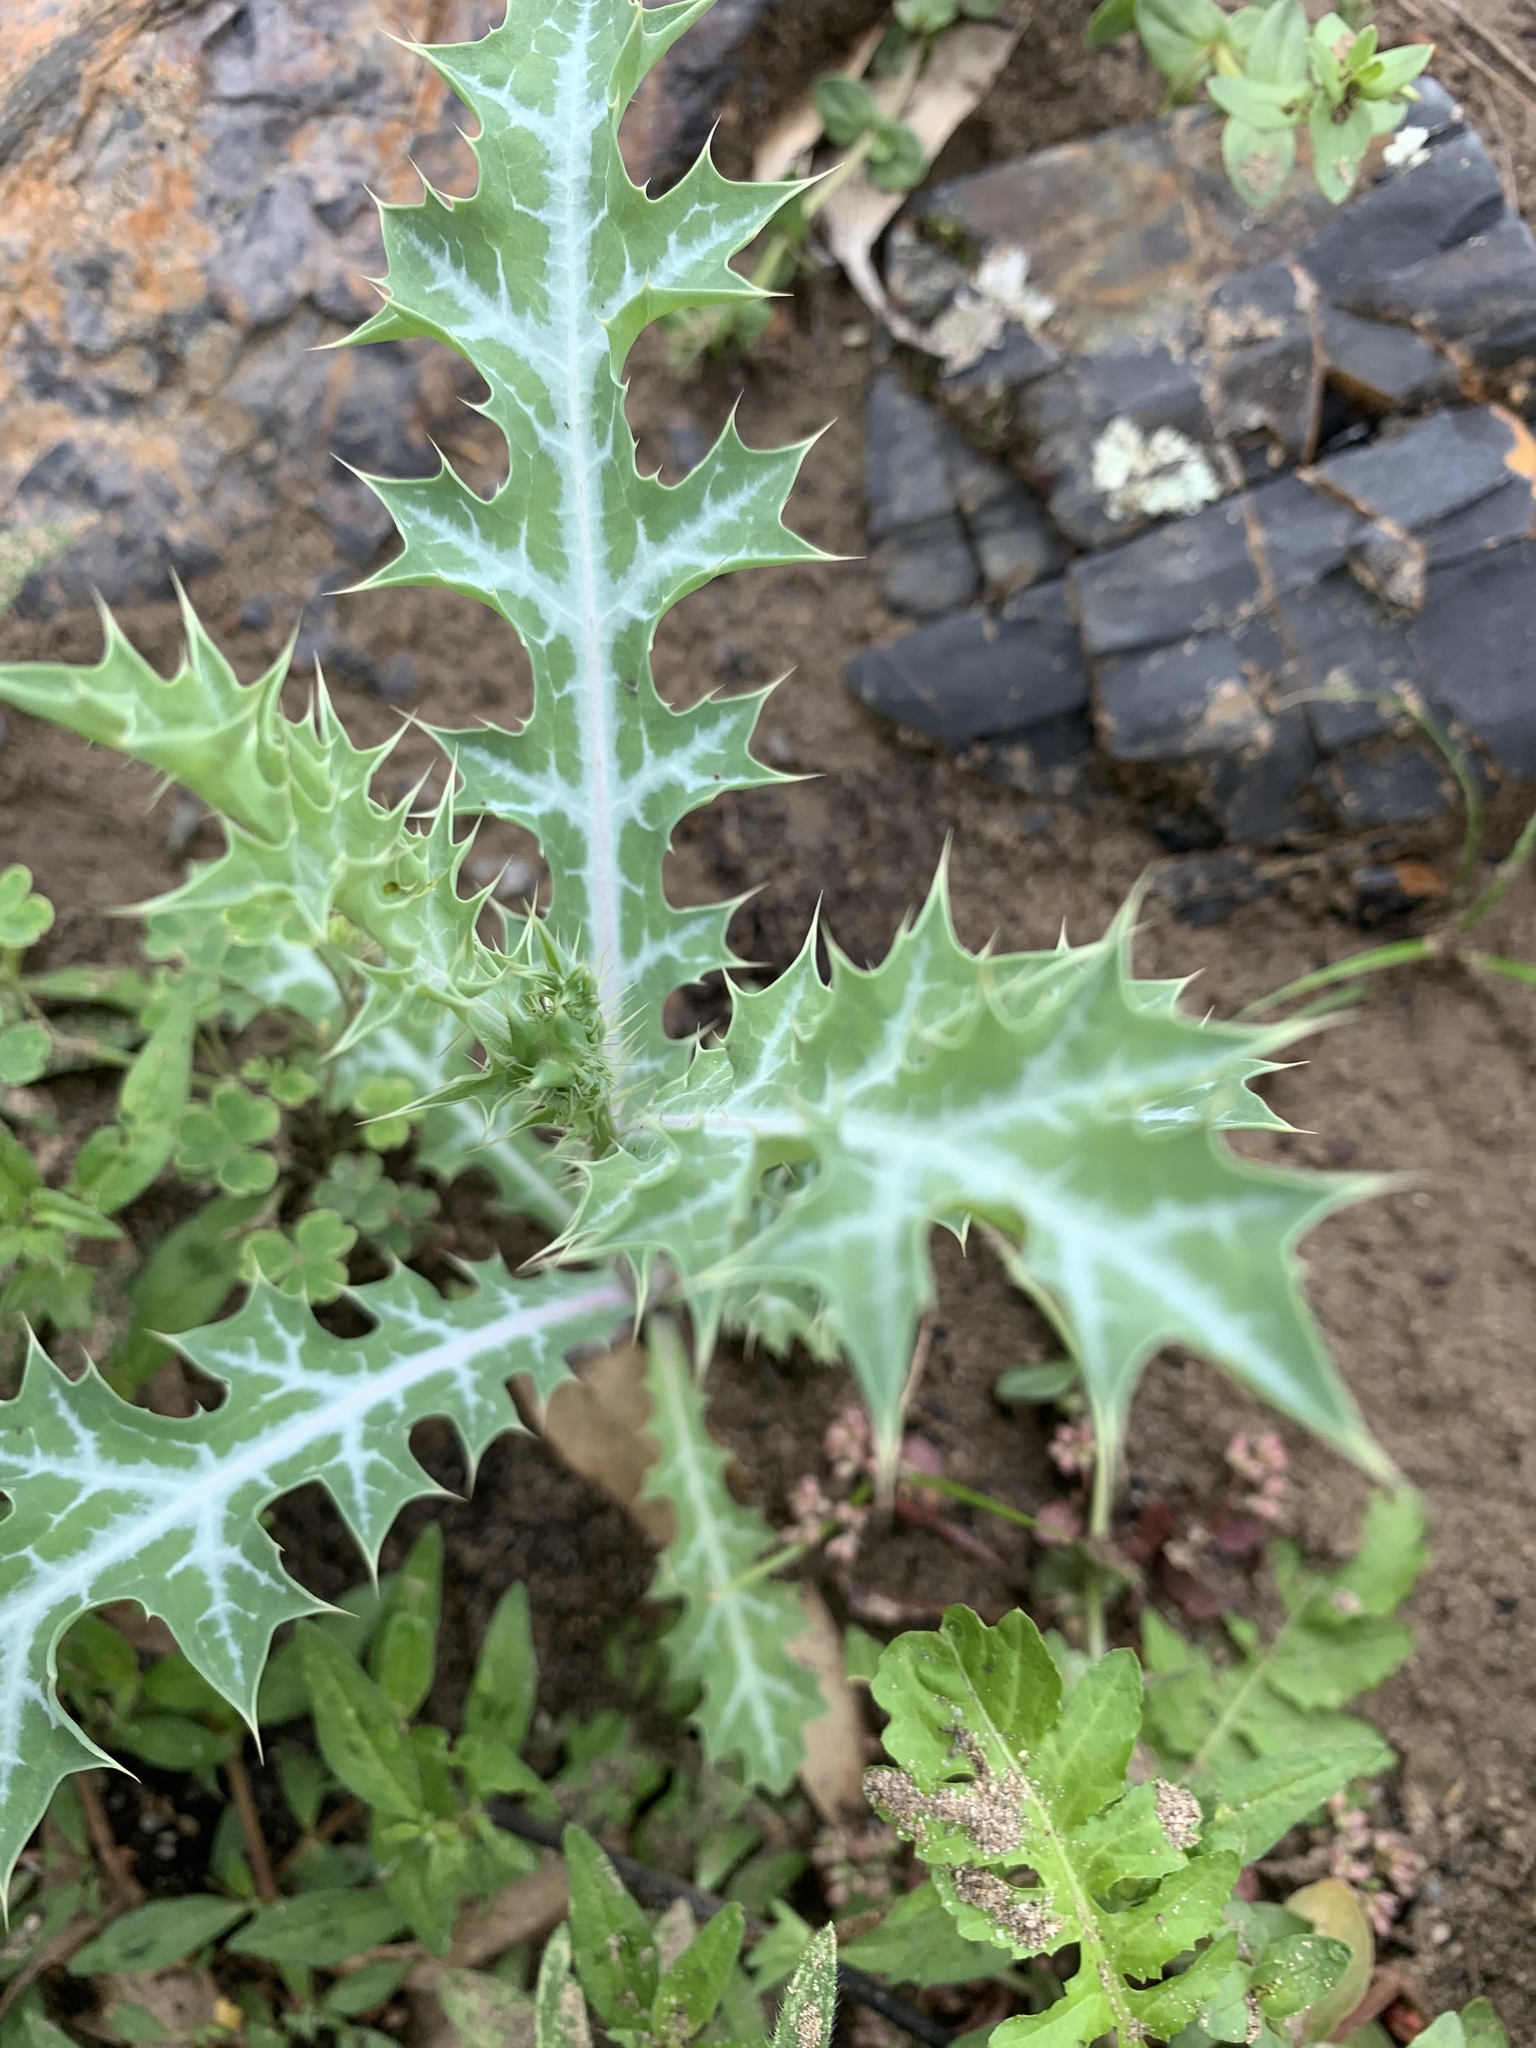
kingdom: Plantae
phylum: Tracheophyta
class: Magnoliopsida
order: Ranunculales
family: Papaveraceae
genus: Argemone
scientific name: Argemone ochroleuca
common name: White-flower mexican-poppy
